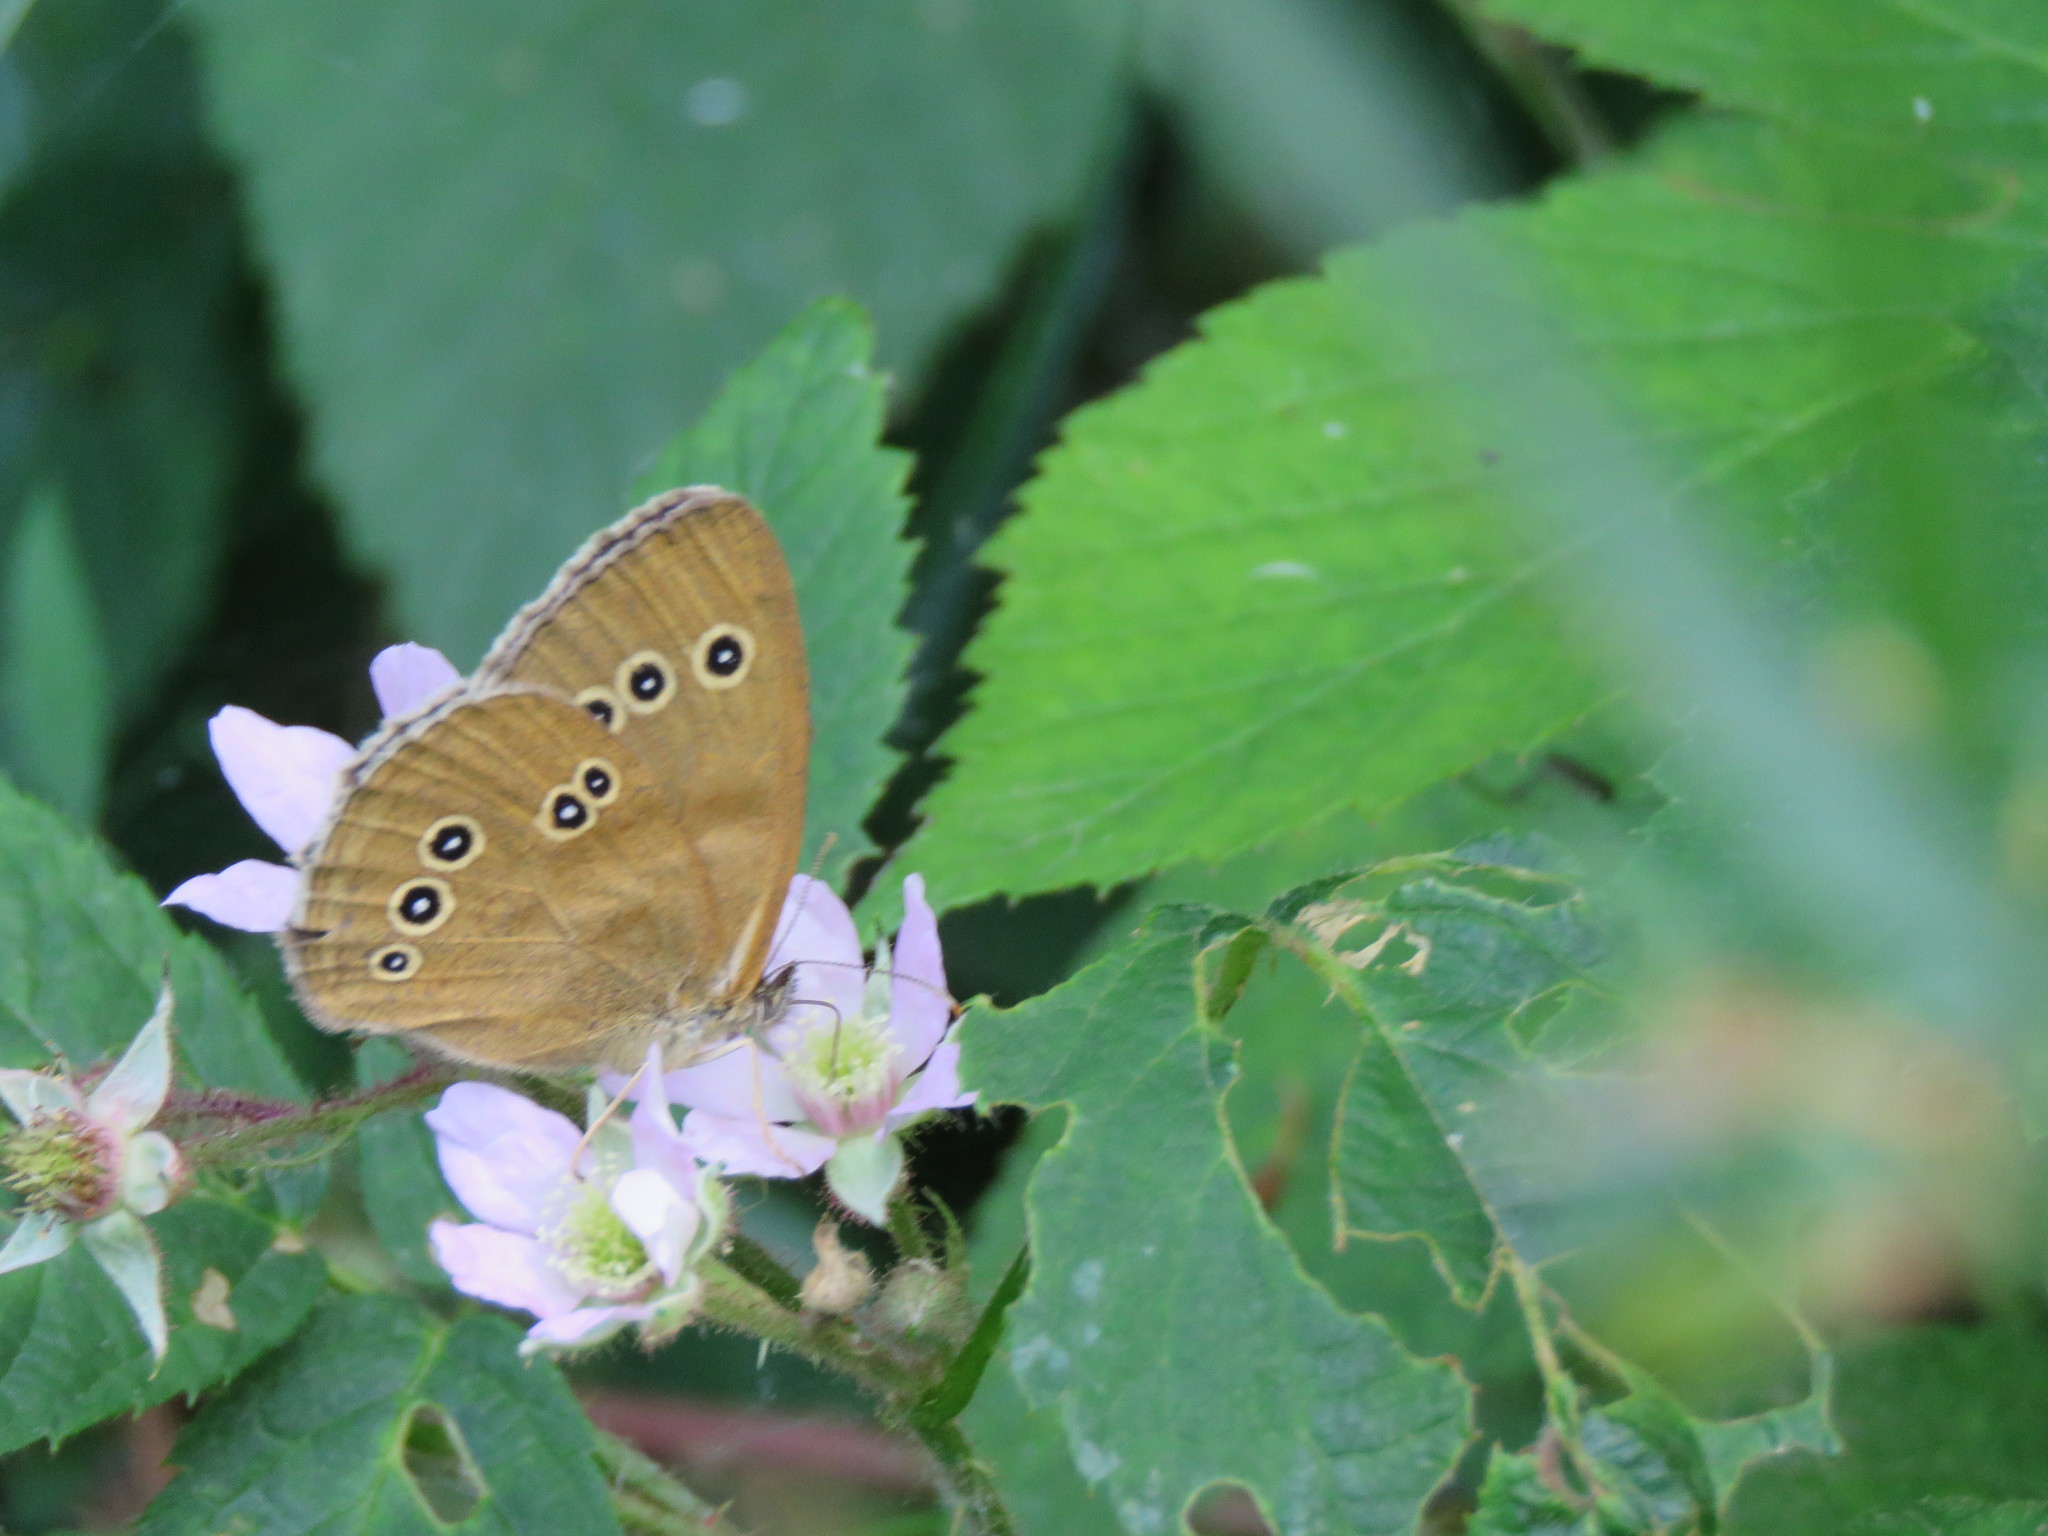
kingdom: Animalia
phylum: Arthropoda
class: Insecta
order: Lepidoptera
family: Nymphalidae
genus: Aphantopus
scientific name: Aphantopus hyperantus
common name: Ringlet
